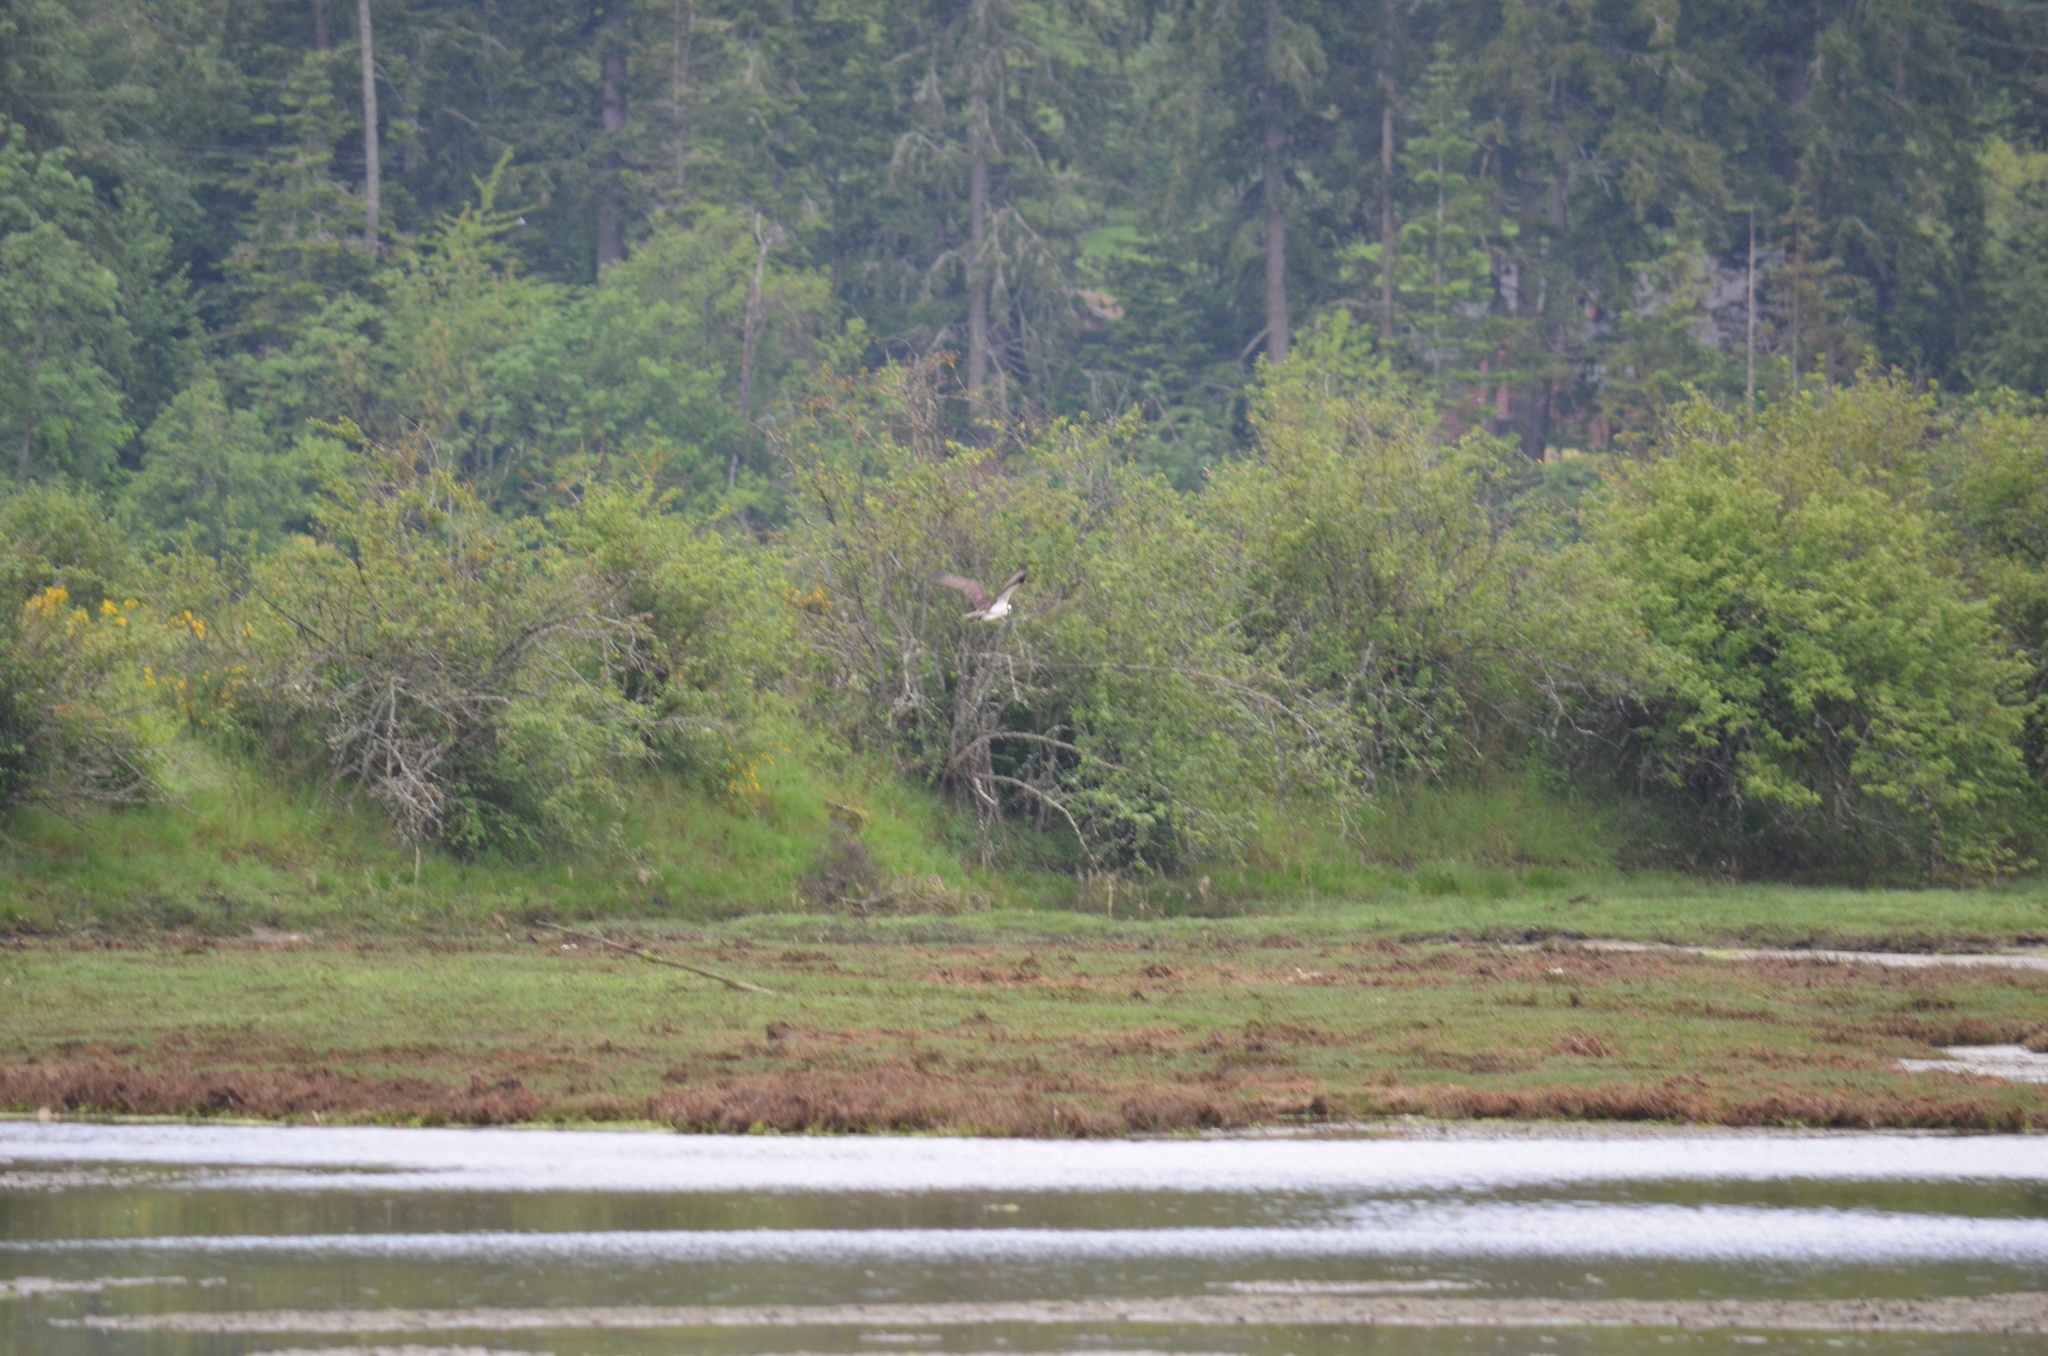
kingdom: Animalia
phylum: Chordata
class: Aves
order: Accipitriformes
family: Pandionidae
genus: Pandion
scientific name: Pandion haliaetus
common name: Osprey
